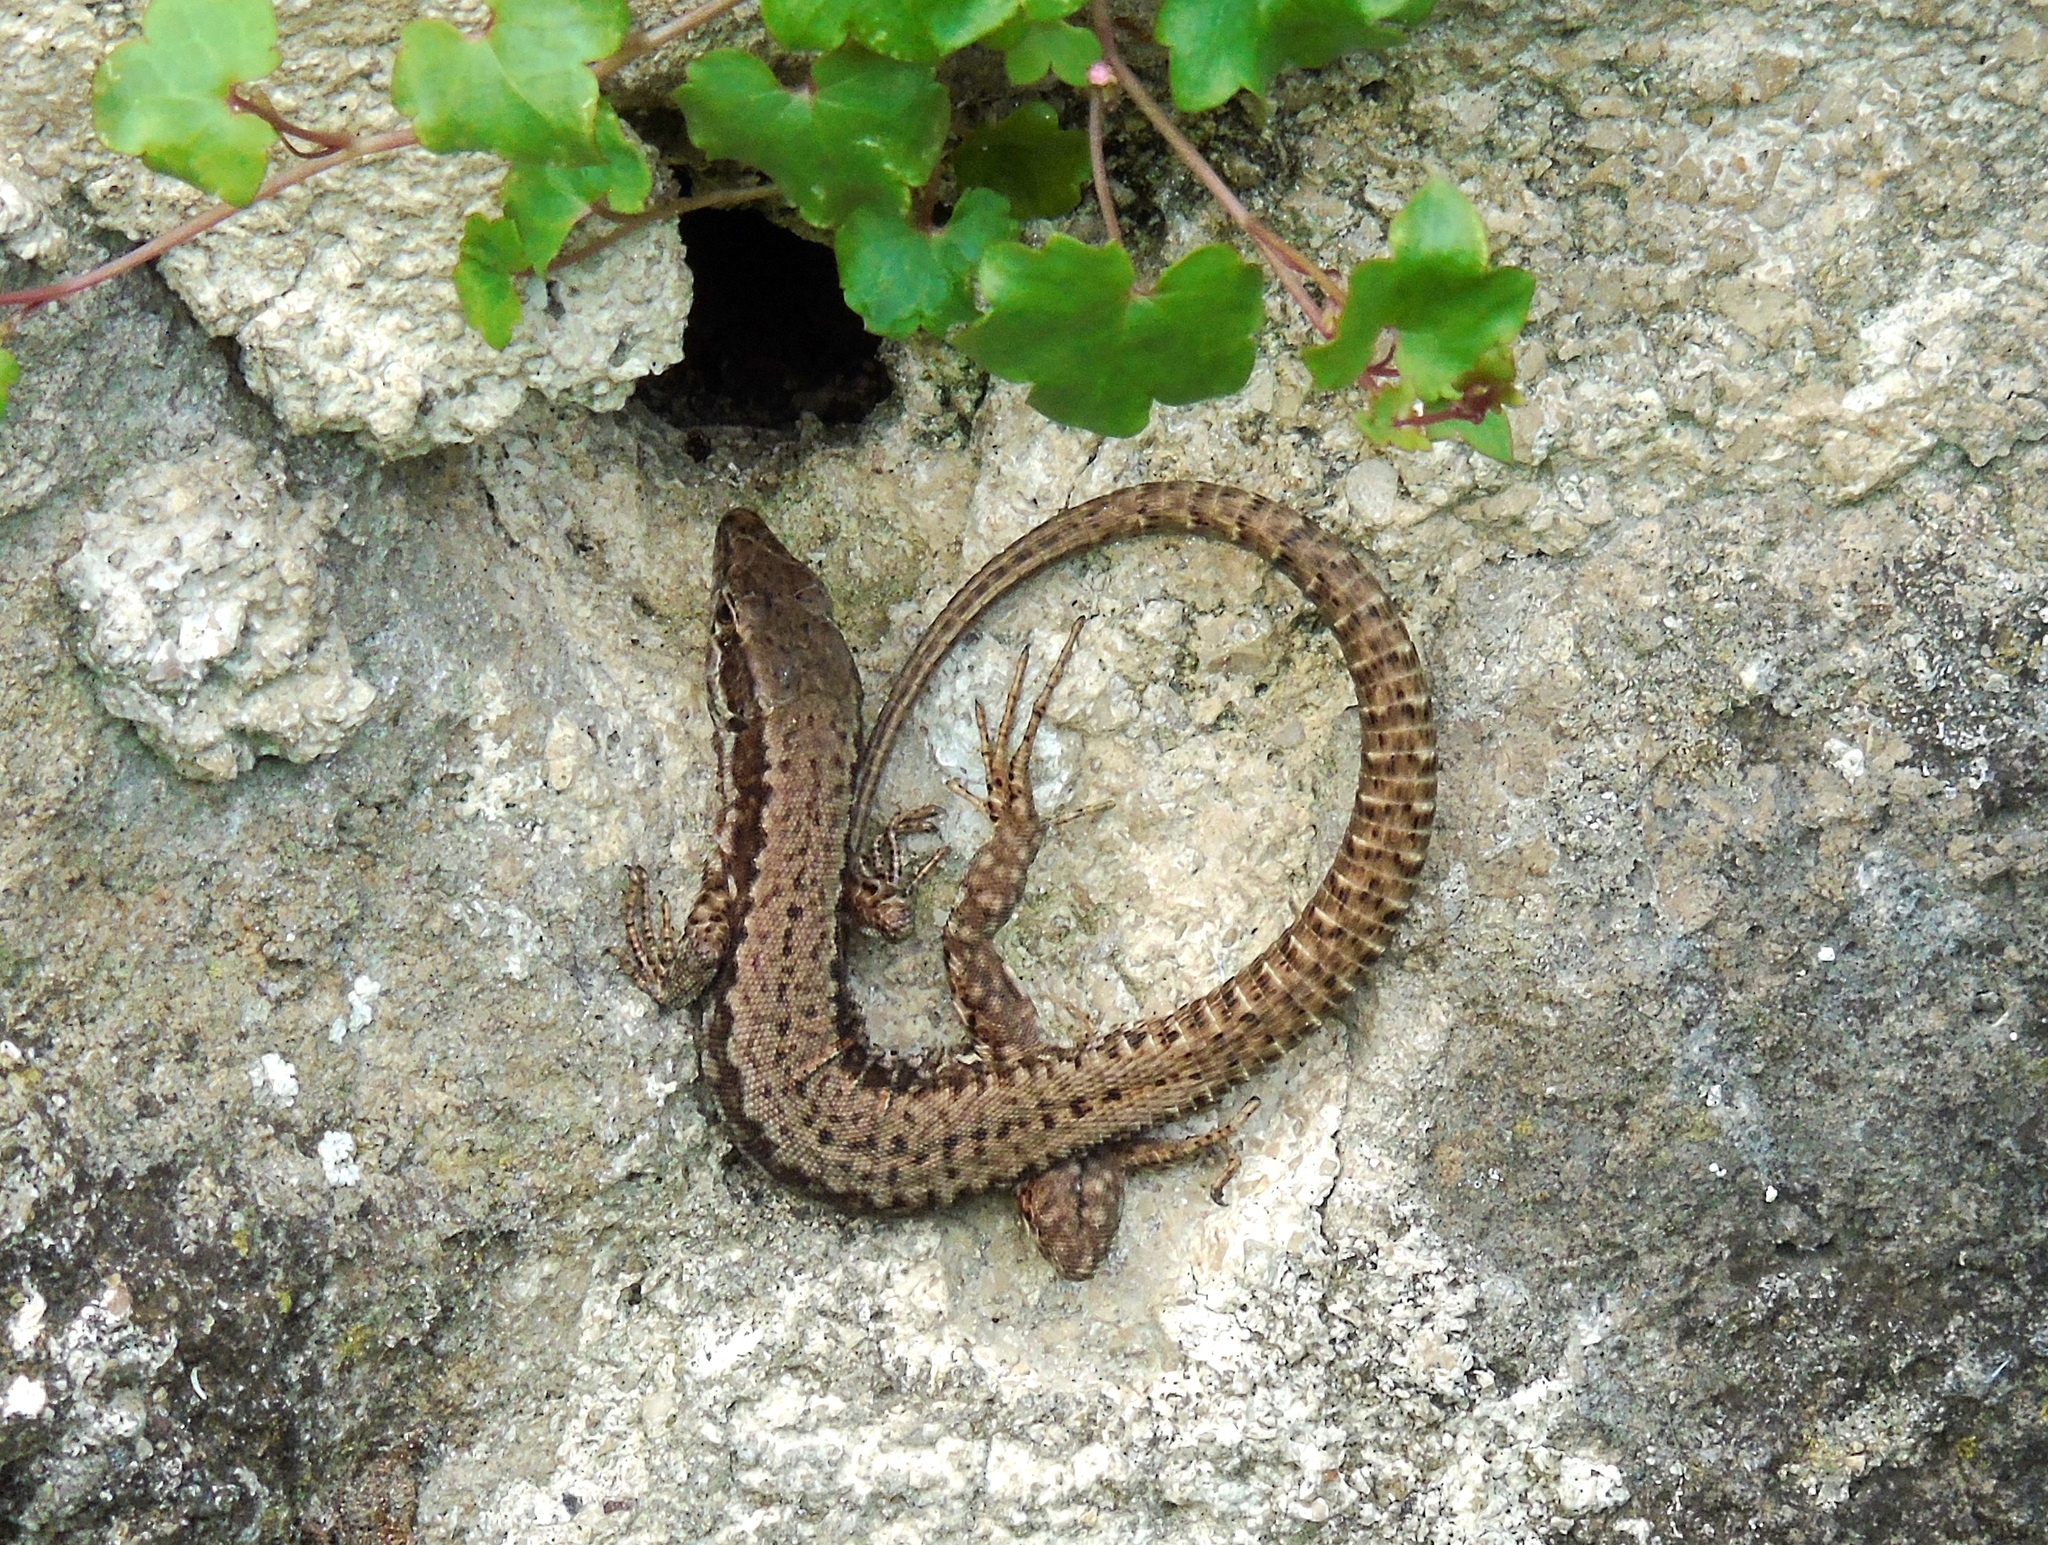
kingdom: Animalia
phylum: Chordata
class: Squamata
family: Lacertidae
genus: Podarcis
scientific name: Podarcis muralis
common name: Common wall lizard
